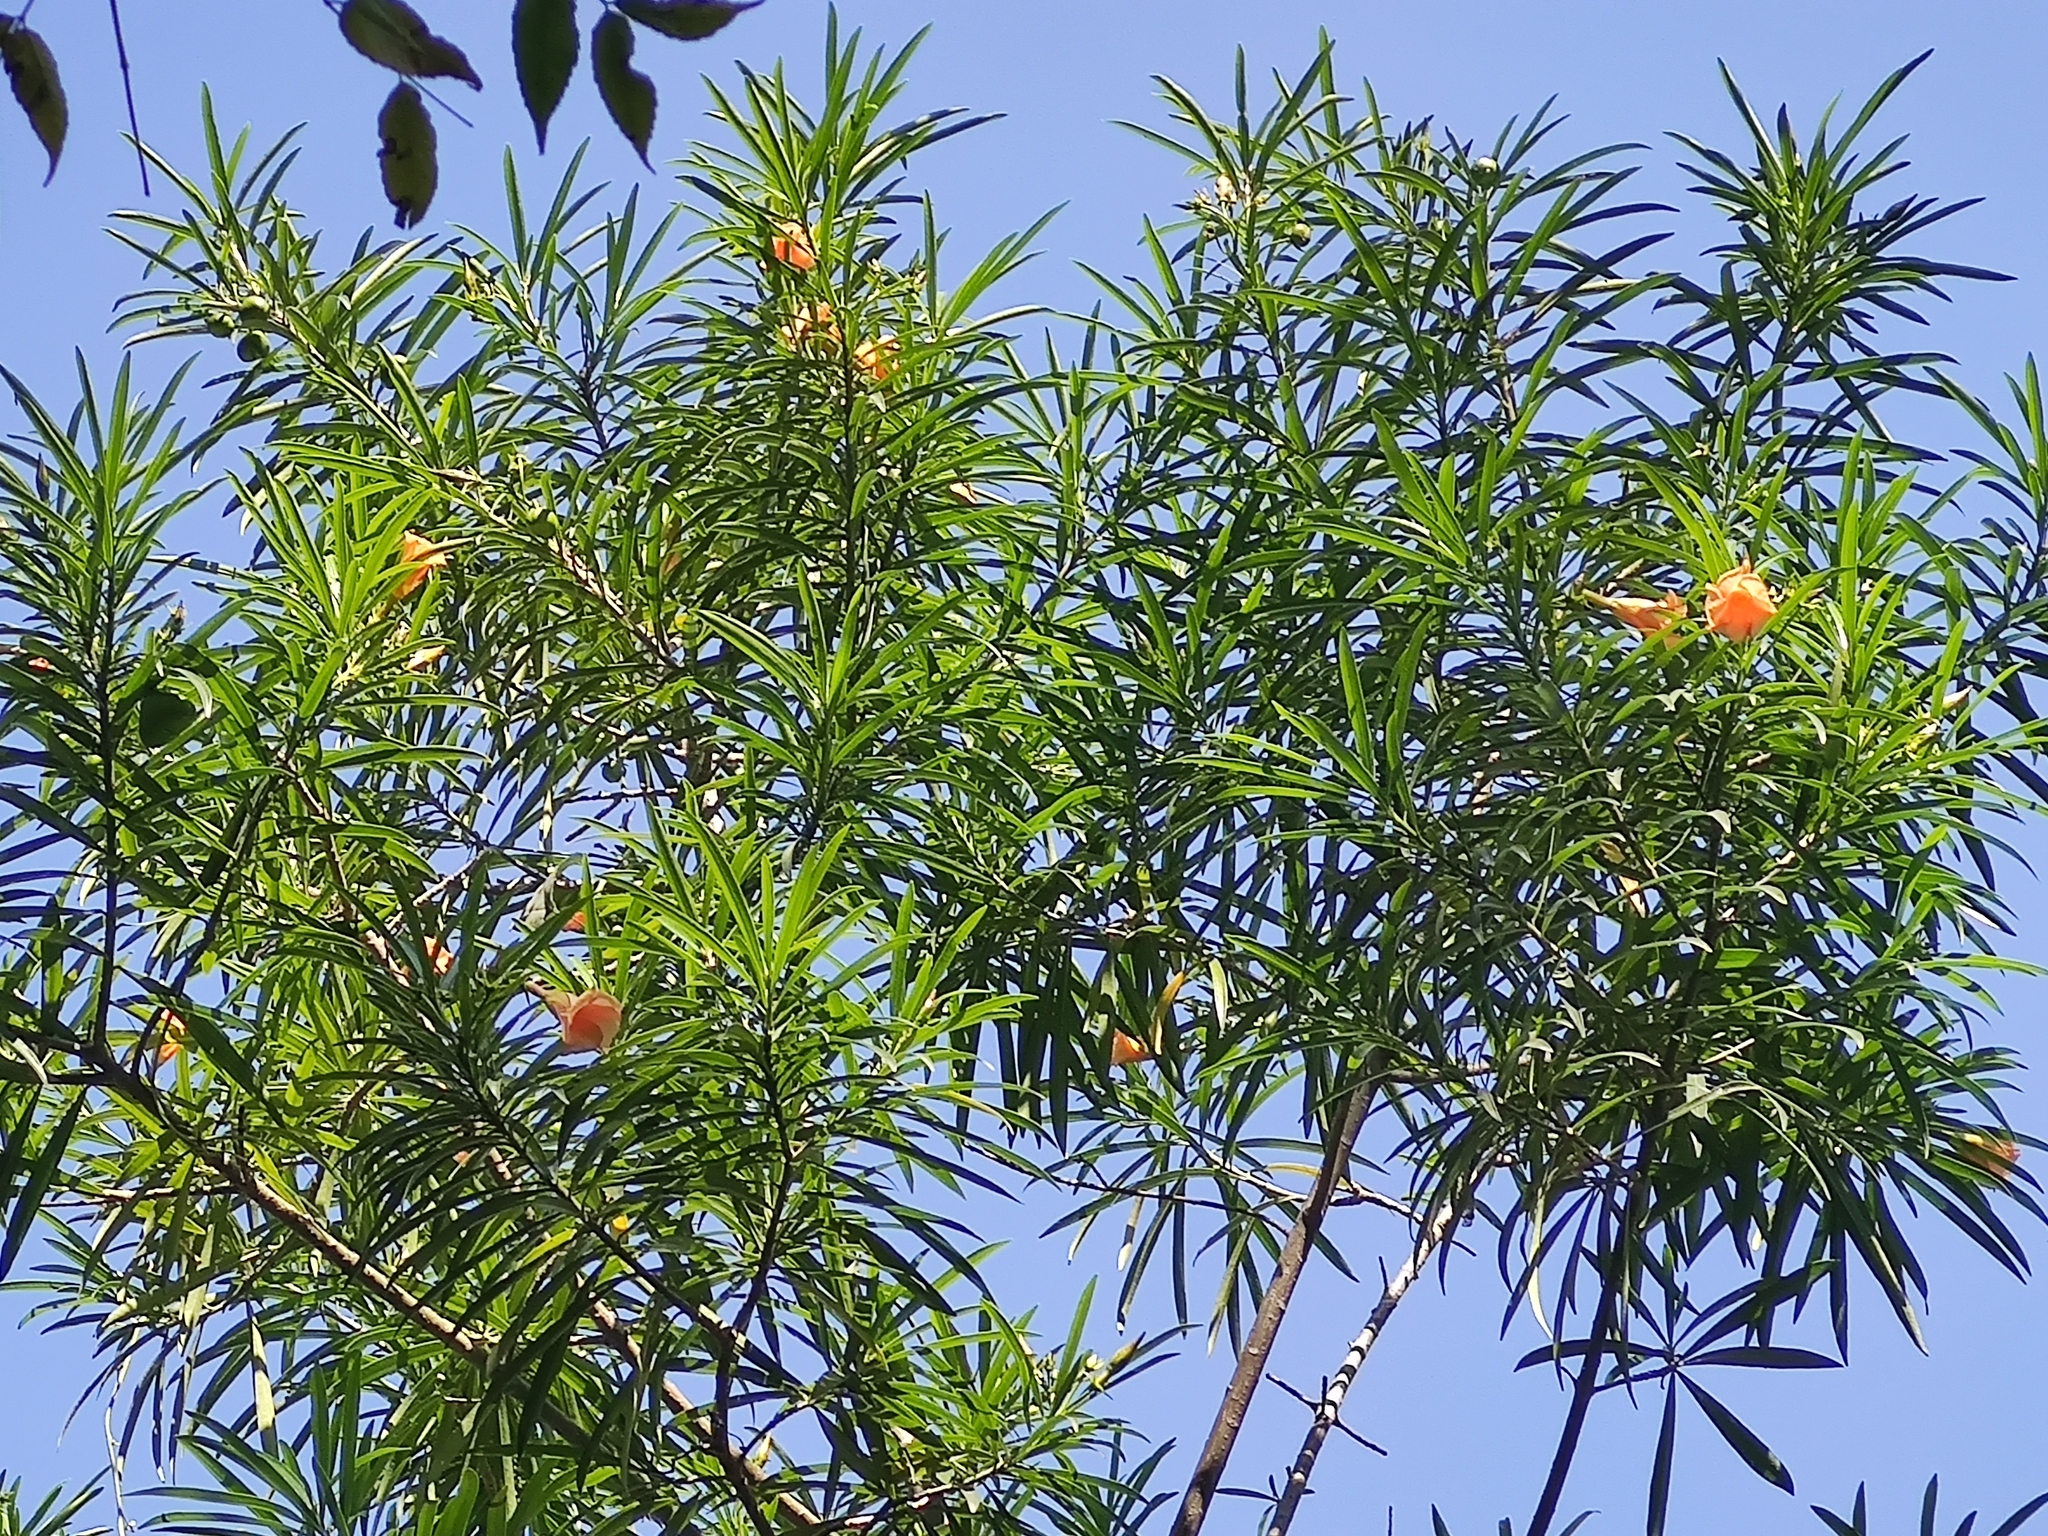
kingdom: Plantae
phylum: Tracheophyta
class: Magnoliopsida
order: Gentianales
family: Apocynaceae
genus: Cascabela
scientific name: Cascabela thevetia
